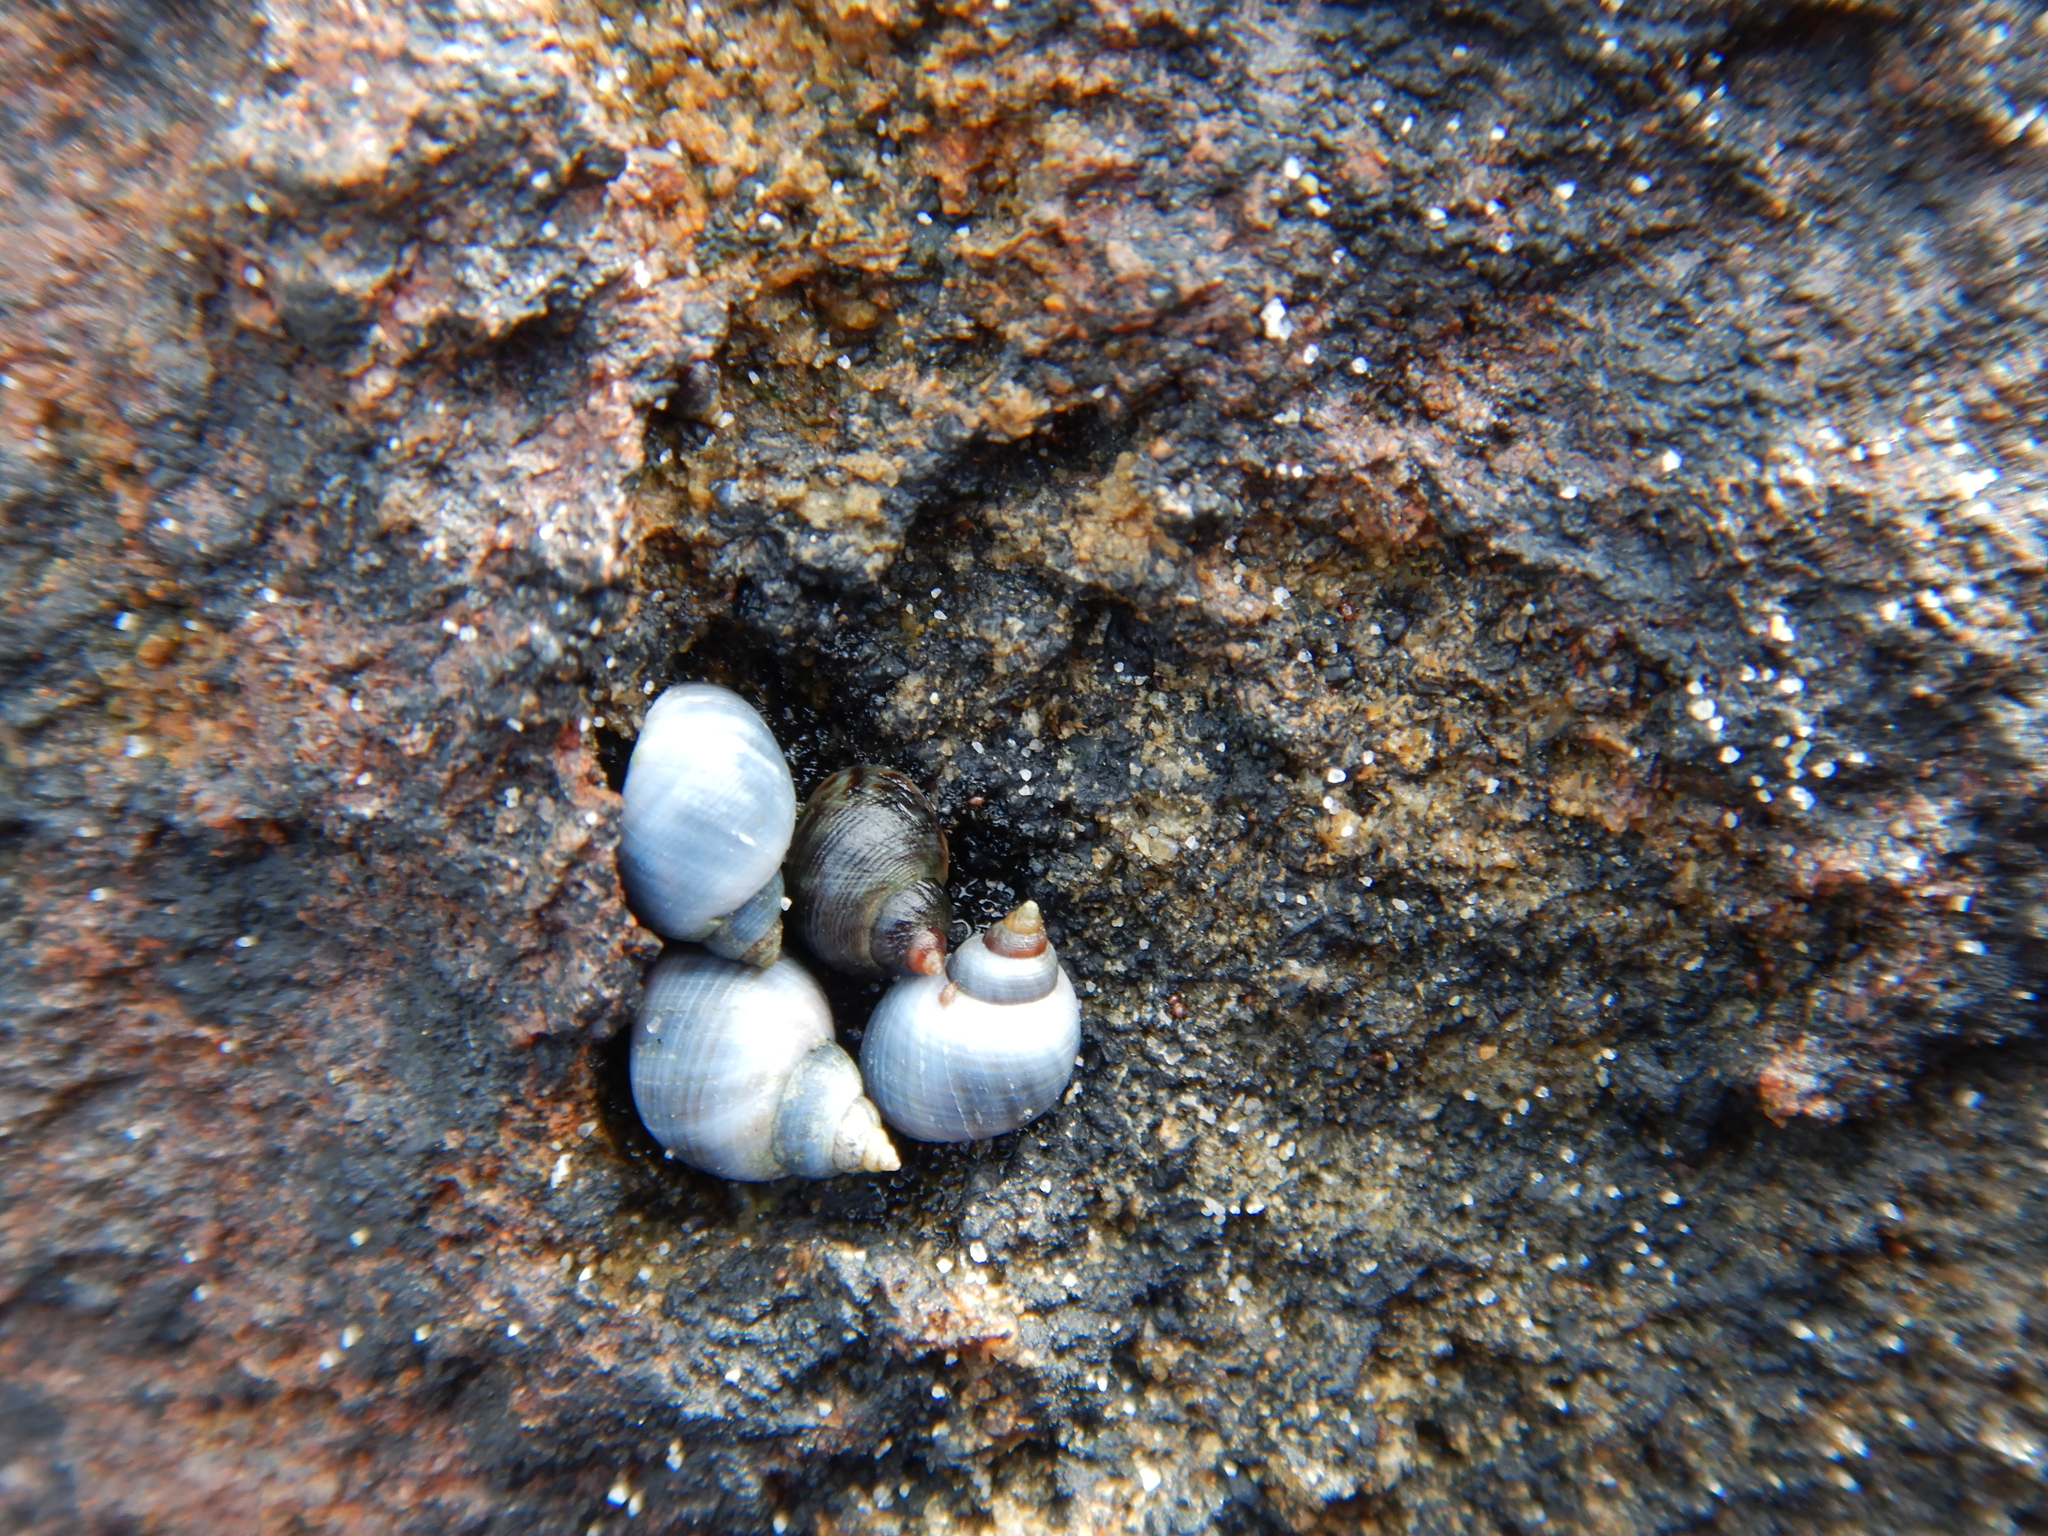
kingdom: Animalia
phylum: Mollusca
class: Gastropoda
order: Littorinimorpha
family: Littorinidae
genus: Austrolittorina
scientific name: Austrolittorina unifasciata
